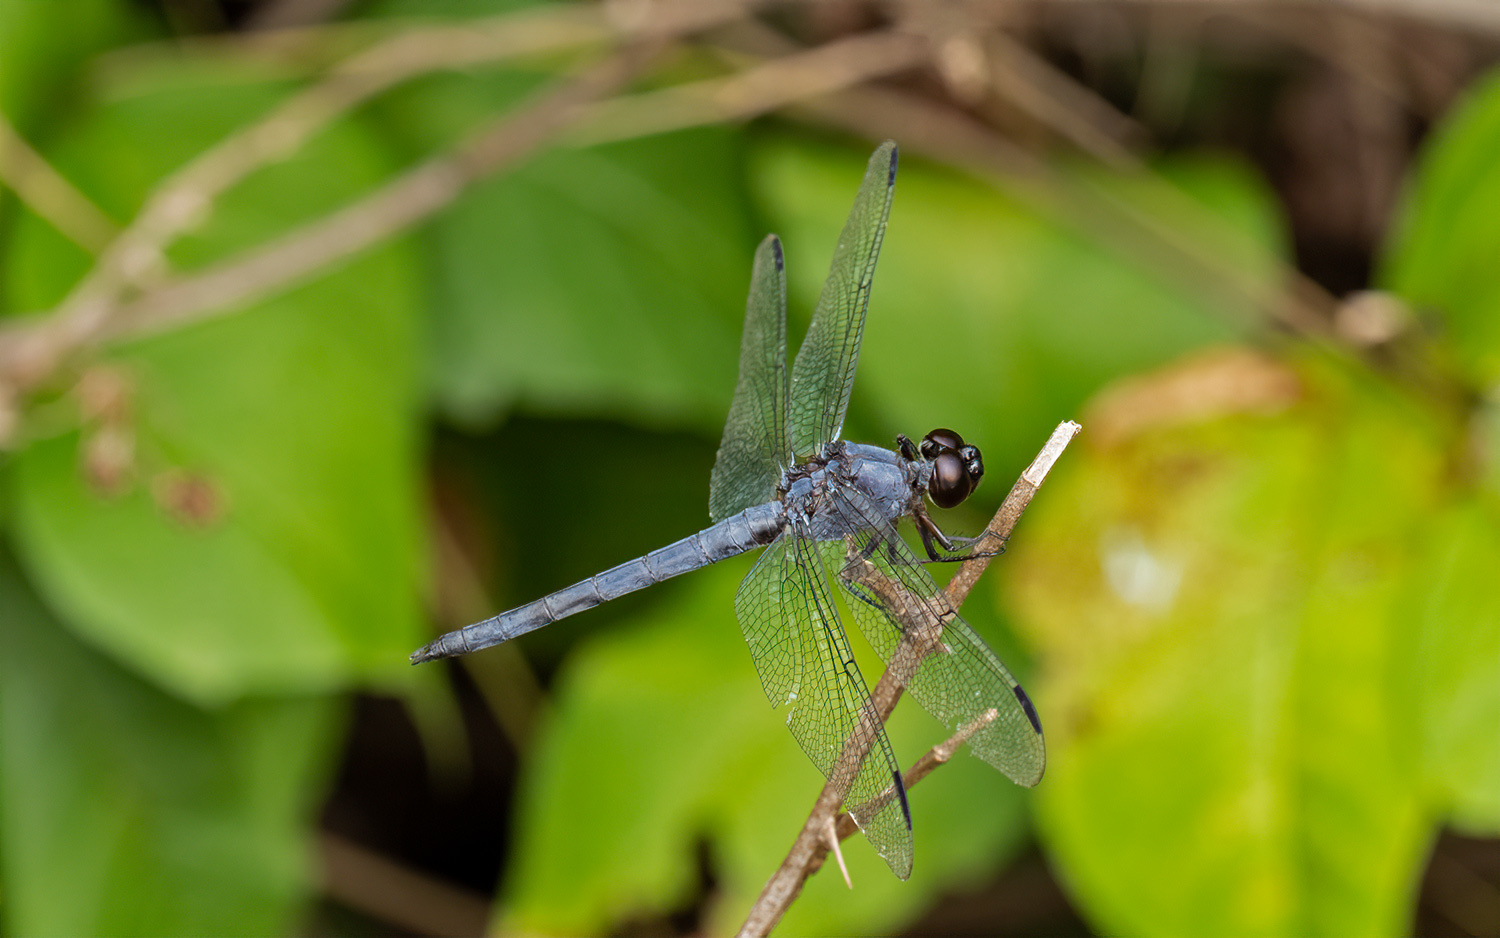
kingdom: Animalia
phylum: Arthropoda
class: Insecta
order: Odonata
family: Libellulidae
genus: Libellula
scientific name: Libellula incesta
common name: Slaty skimmer
